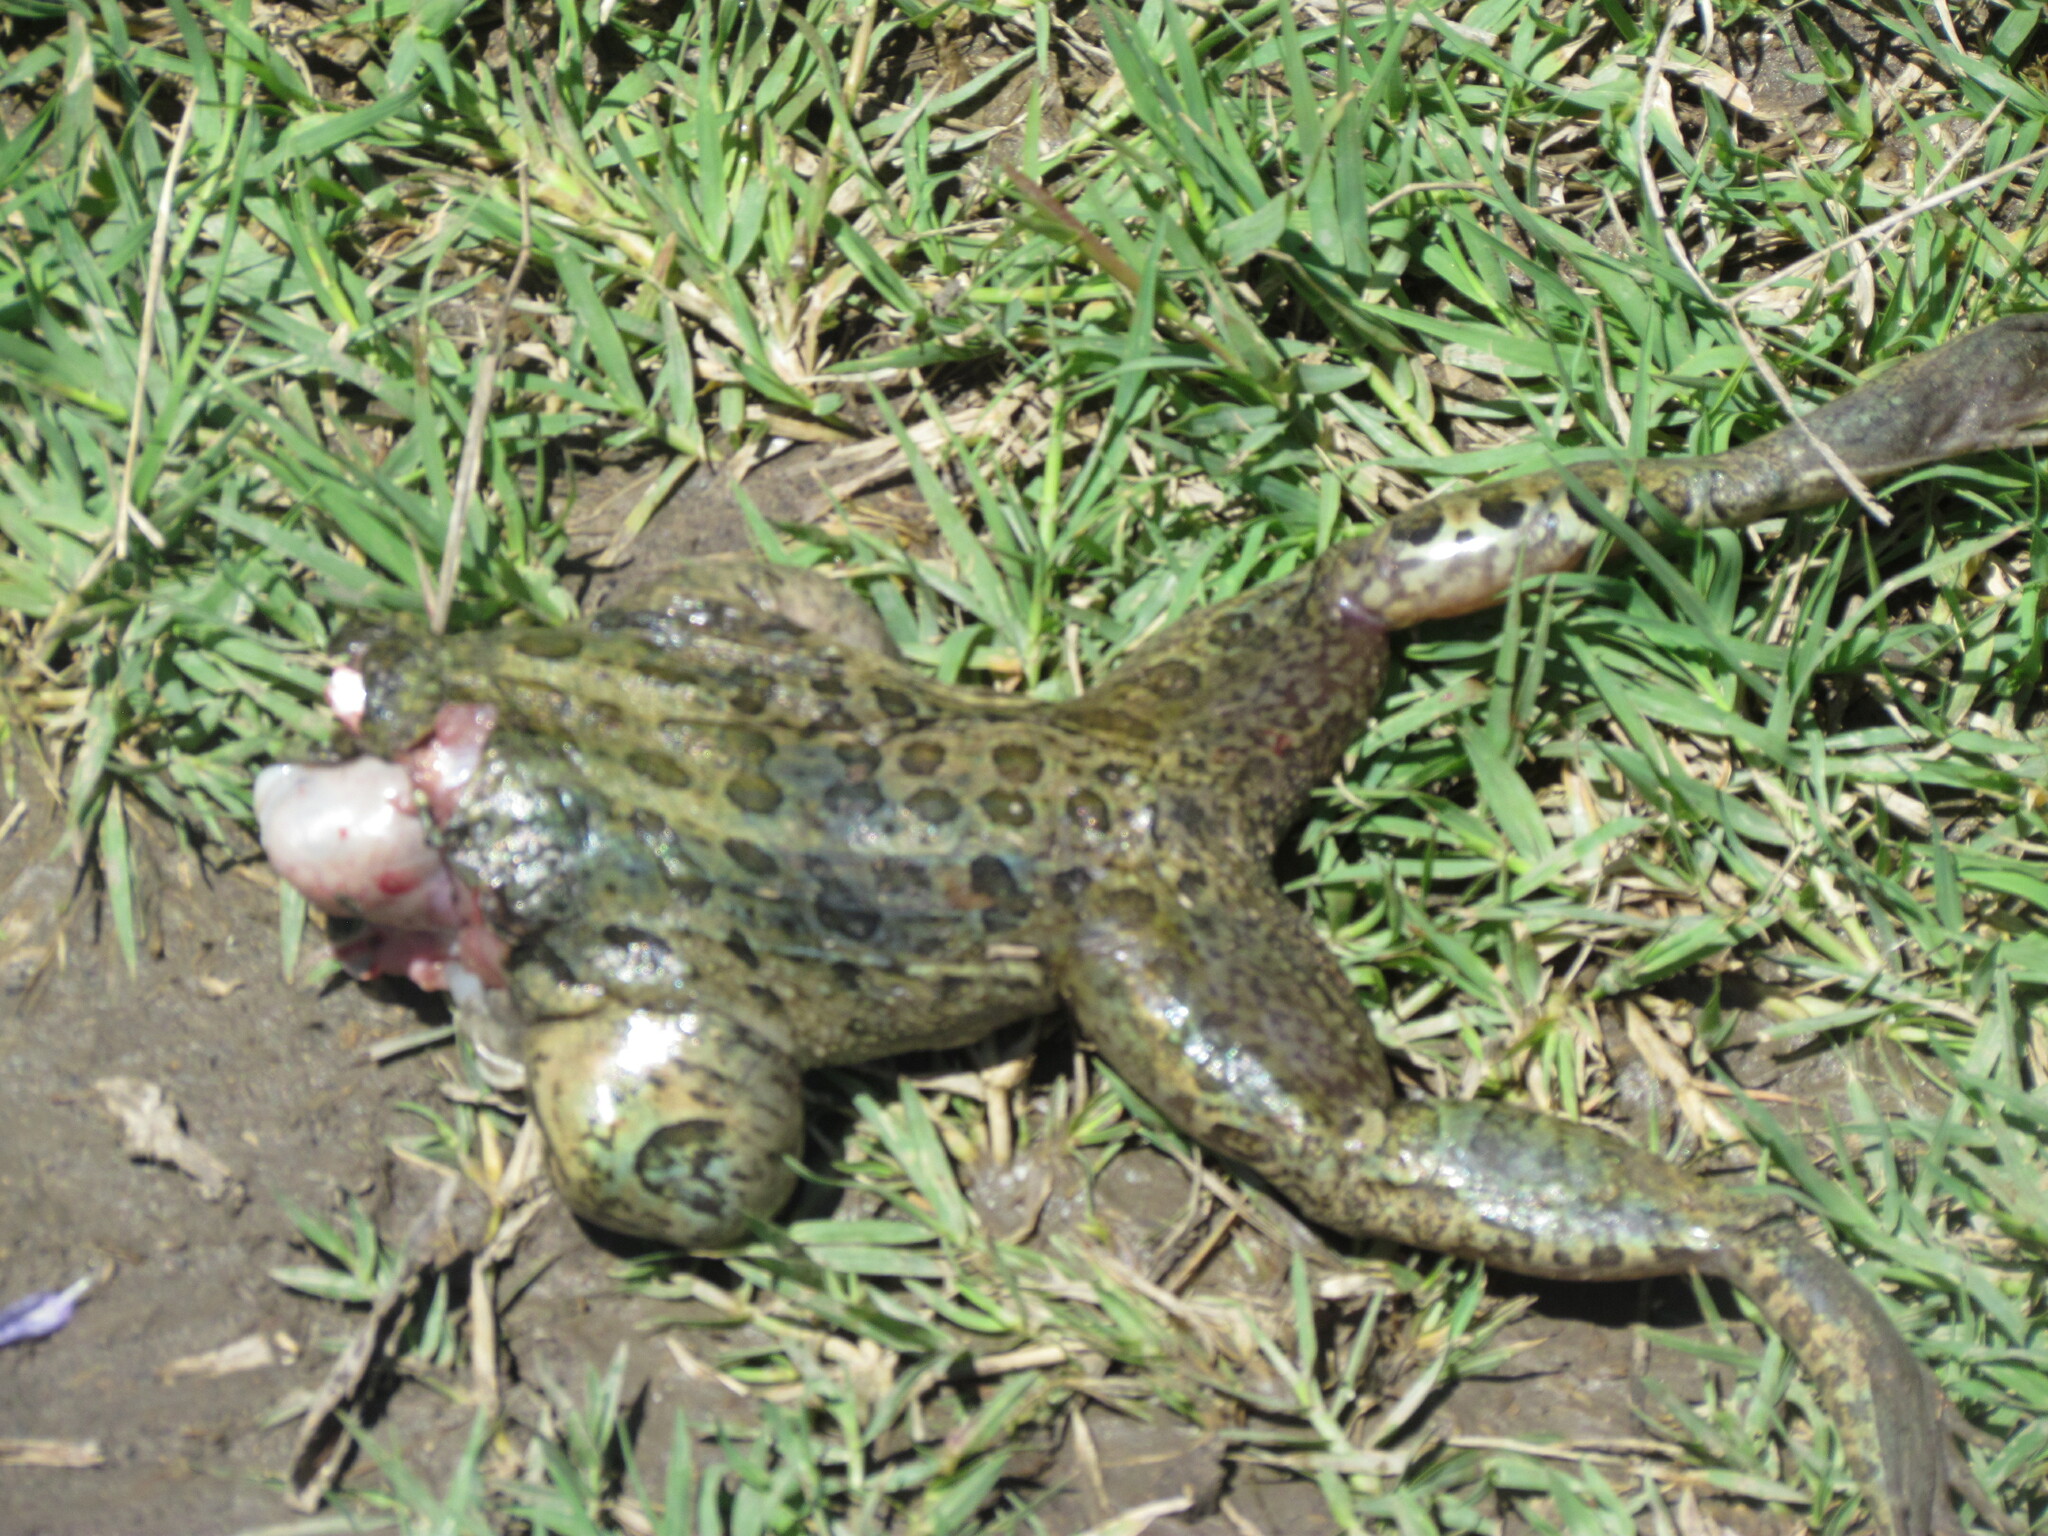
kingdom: Animalia
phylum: Chordata
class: Amphibia
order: Anura
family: Leptodactylidae
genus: Leptodactylus
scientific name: Leptodactylus luctator
